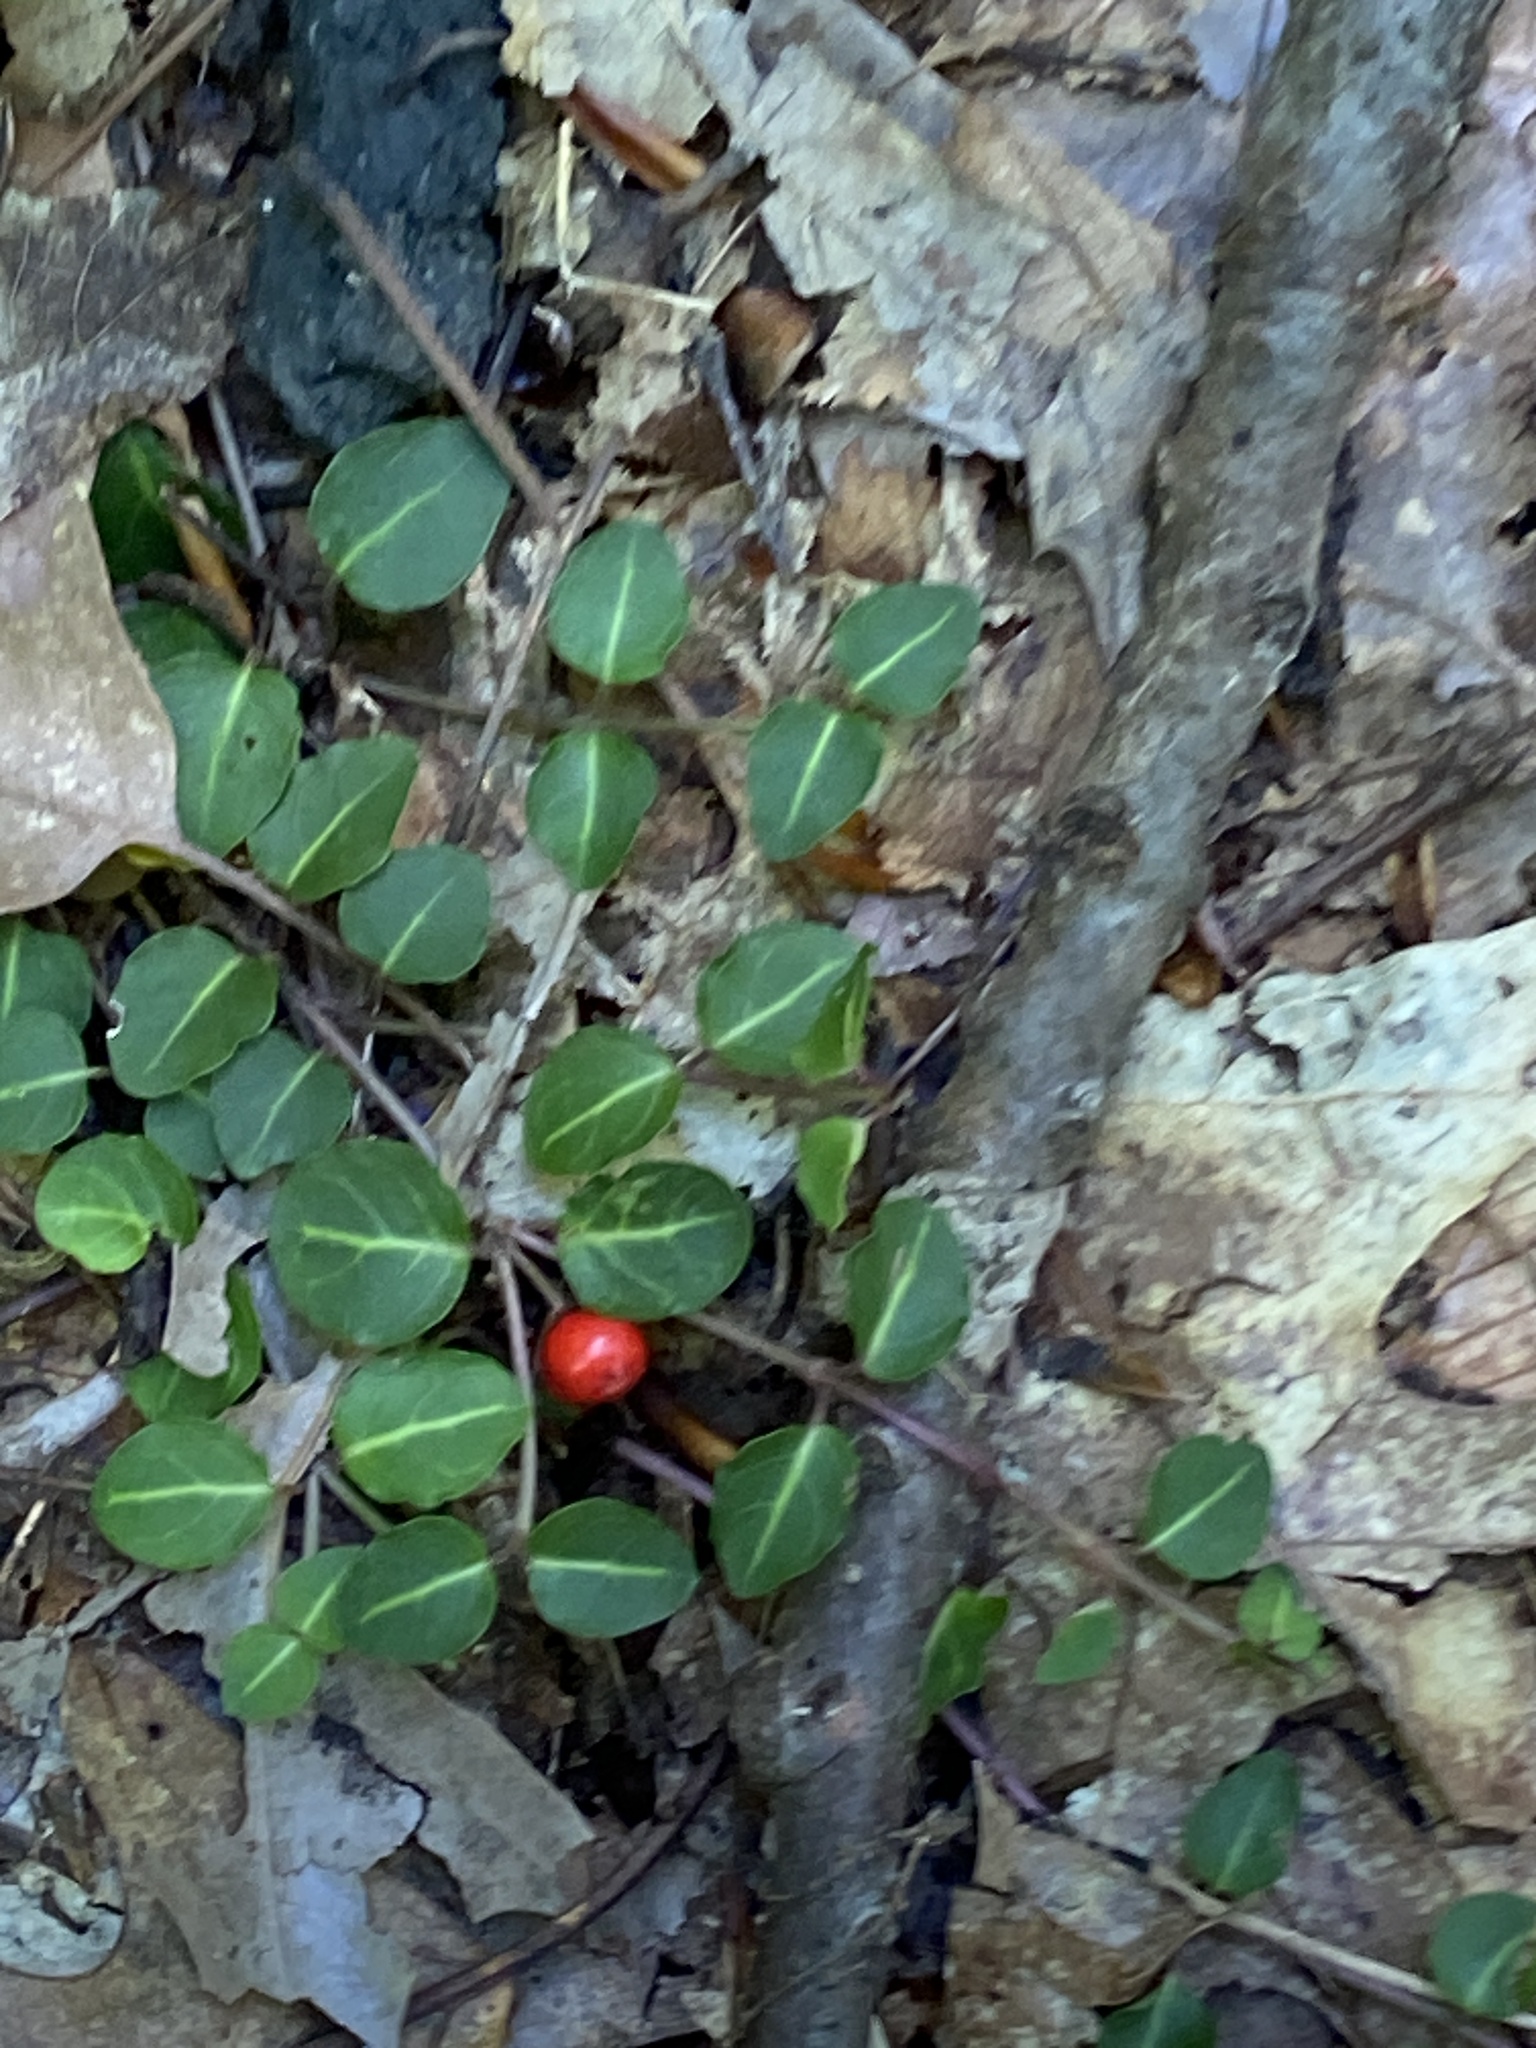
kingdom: Plantae
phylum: Tracheophyta
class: Magnoliopsida
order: Gentianales
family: Rubiaceae
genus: Mitchella
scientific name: Mitchella repens
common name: Partridge-berry
